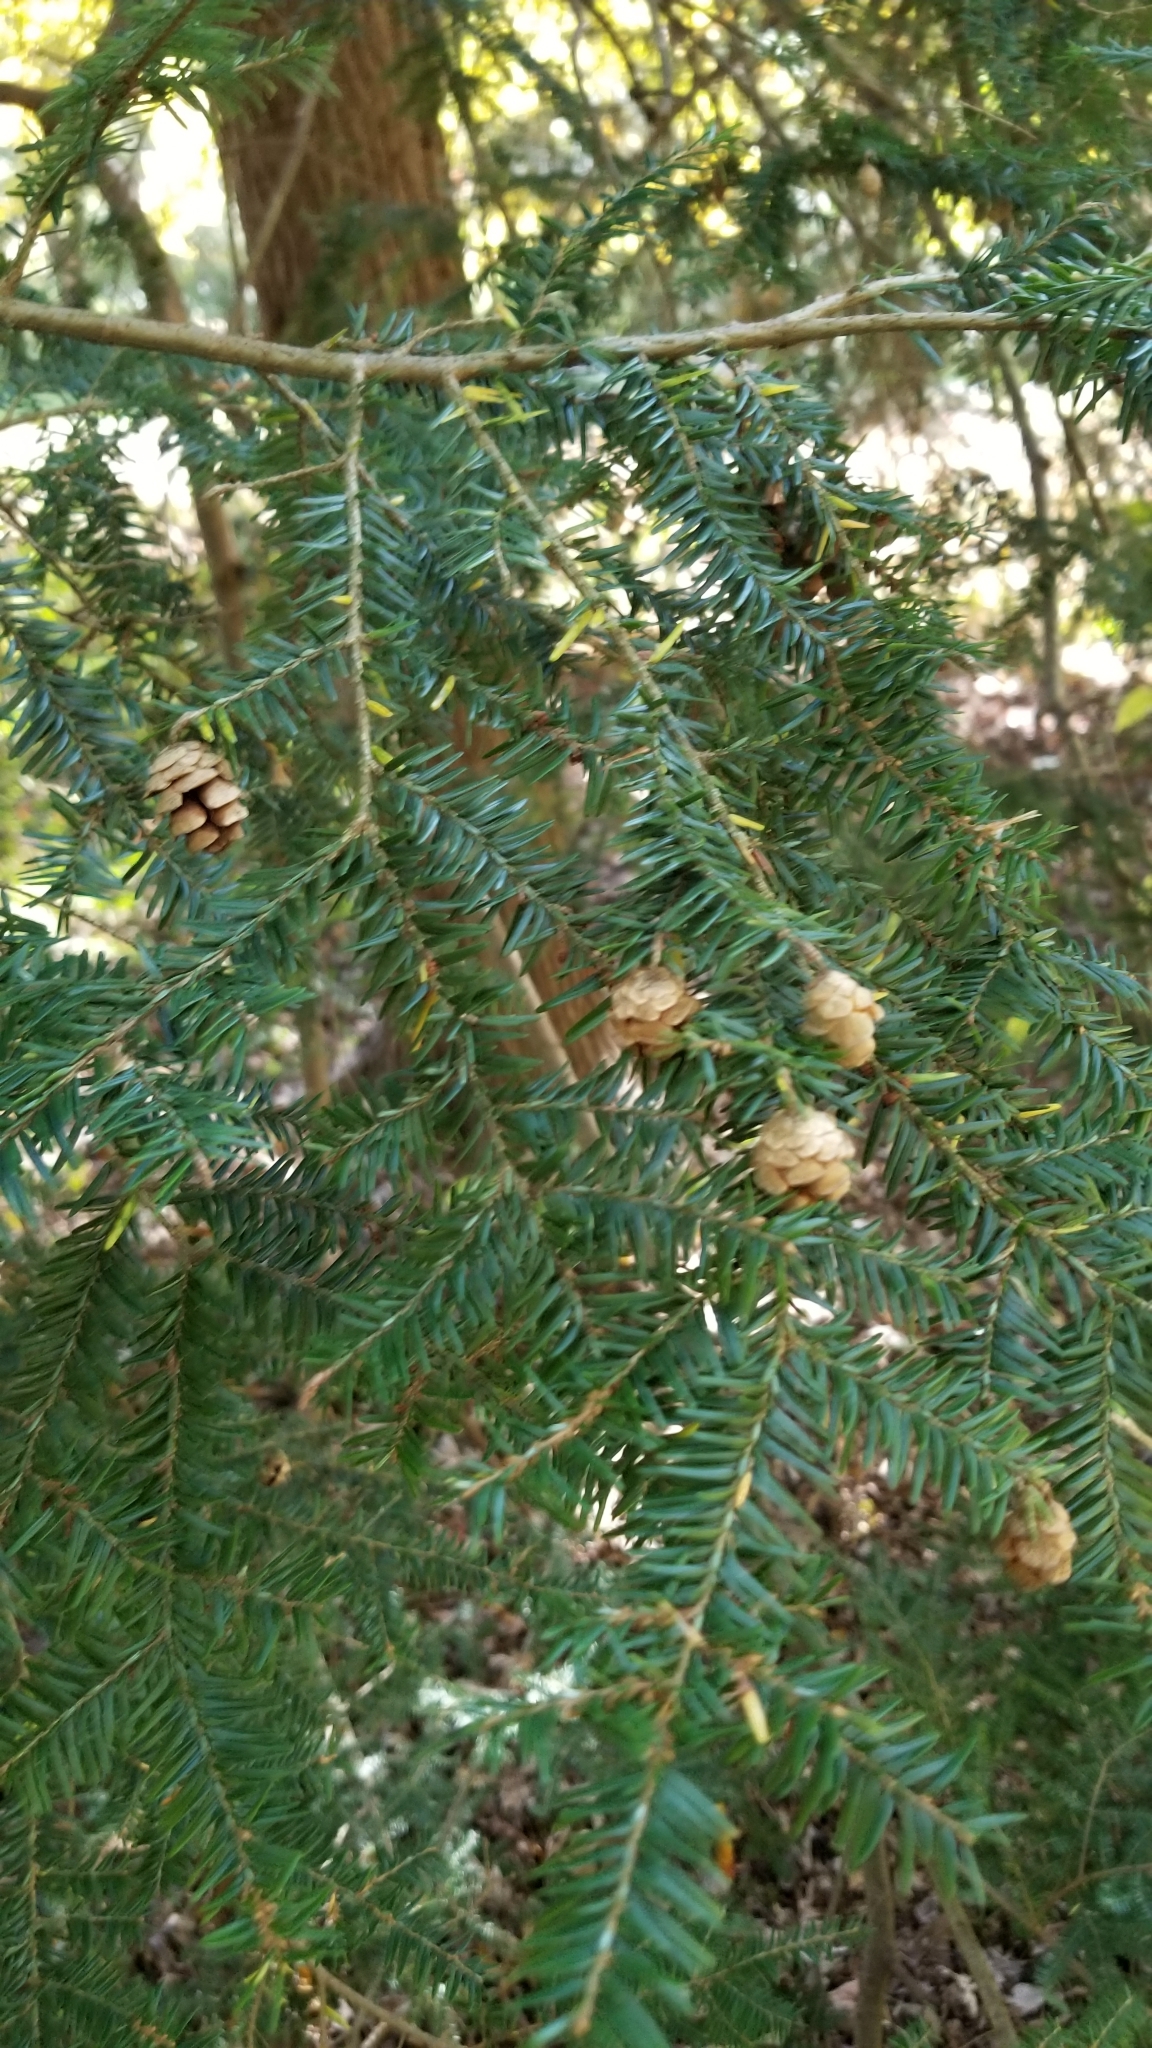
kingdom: Plantae
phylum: Tracheophyta
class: Pinopsida
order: Pinales
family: Pinaceae
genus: Tsuga
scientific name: Tsuga canadensis
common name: Eastern hemlock
